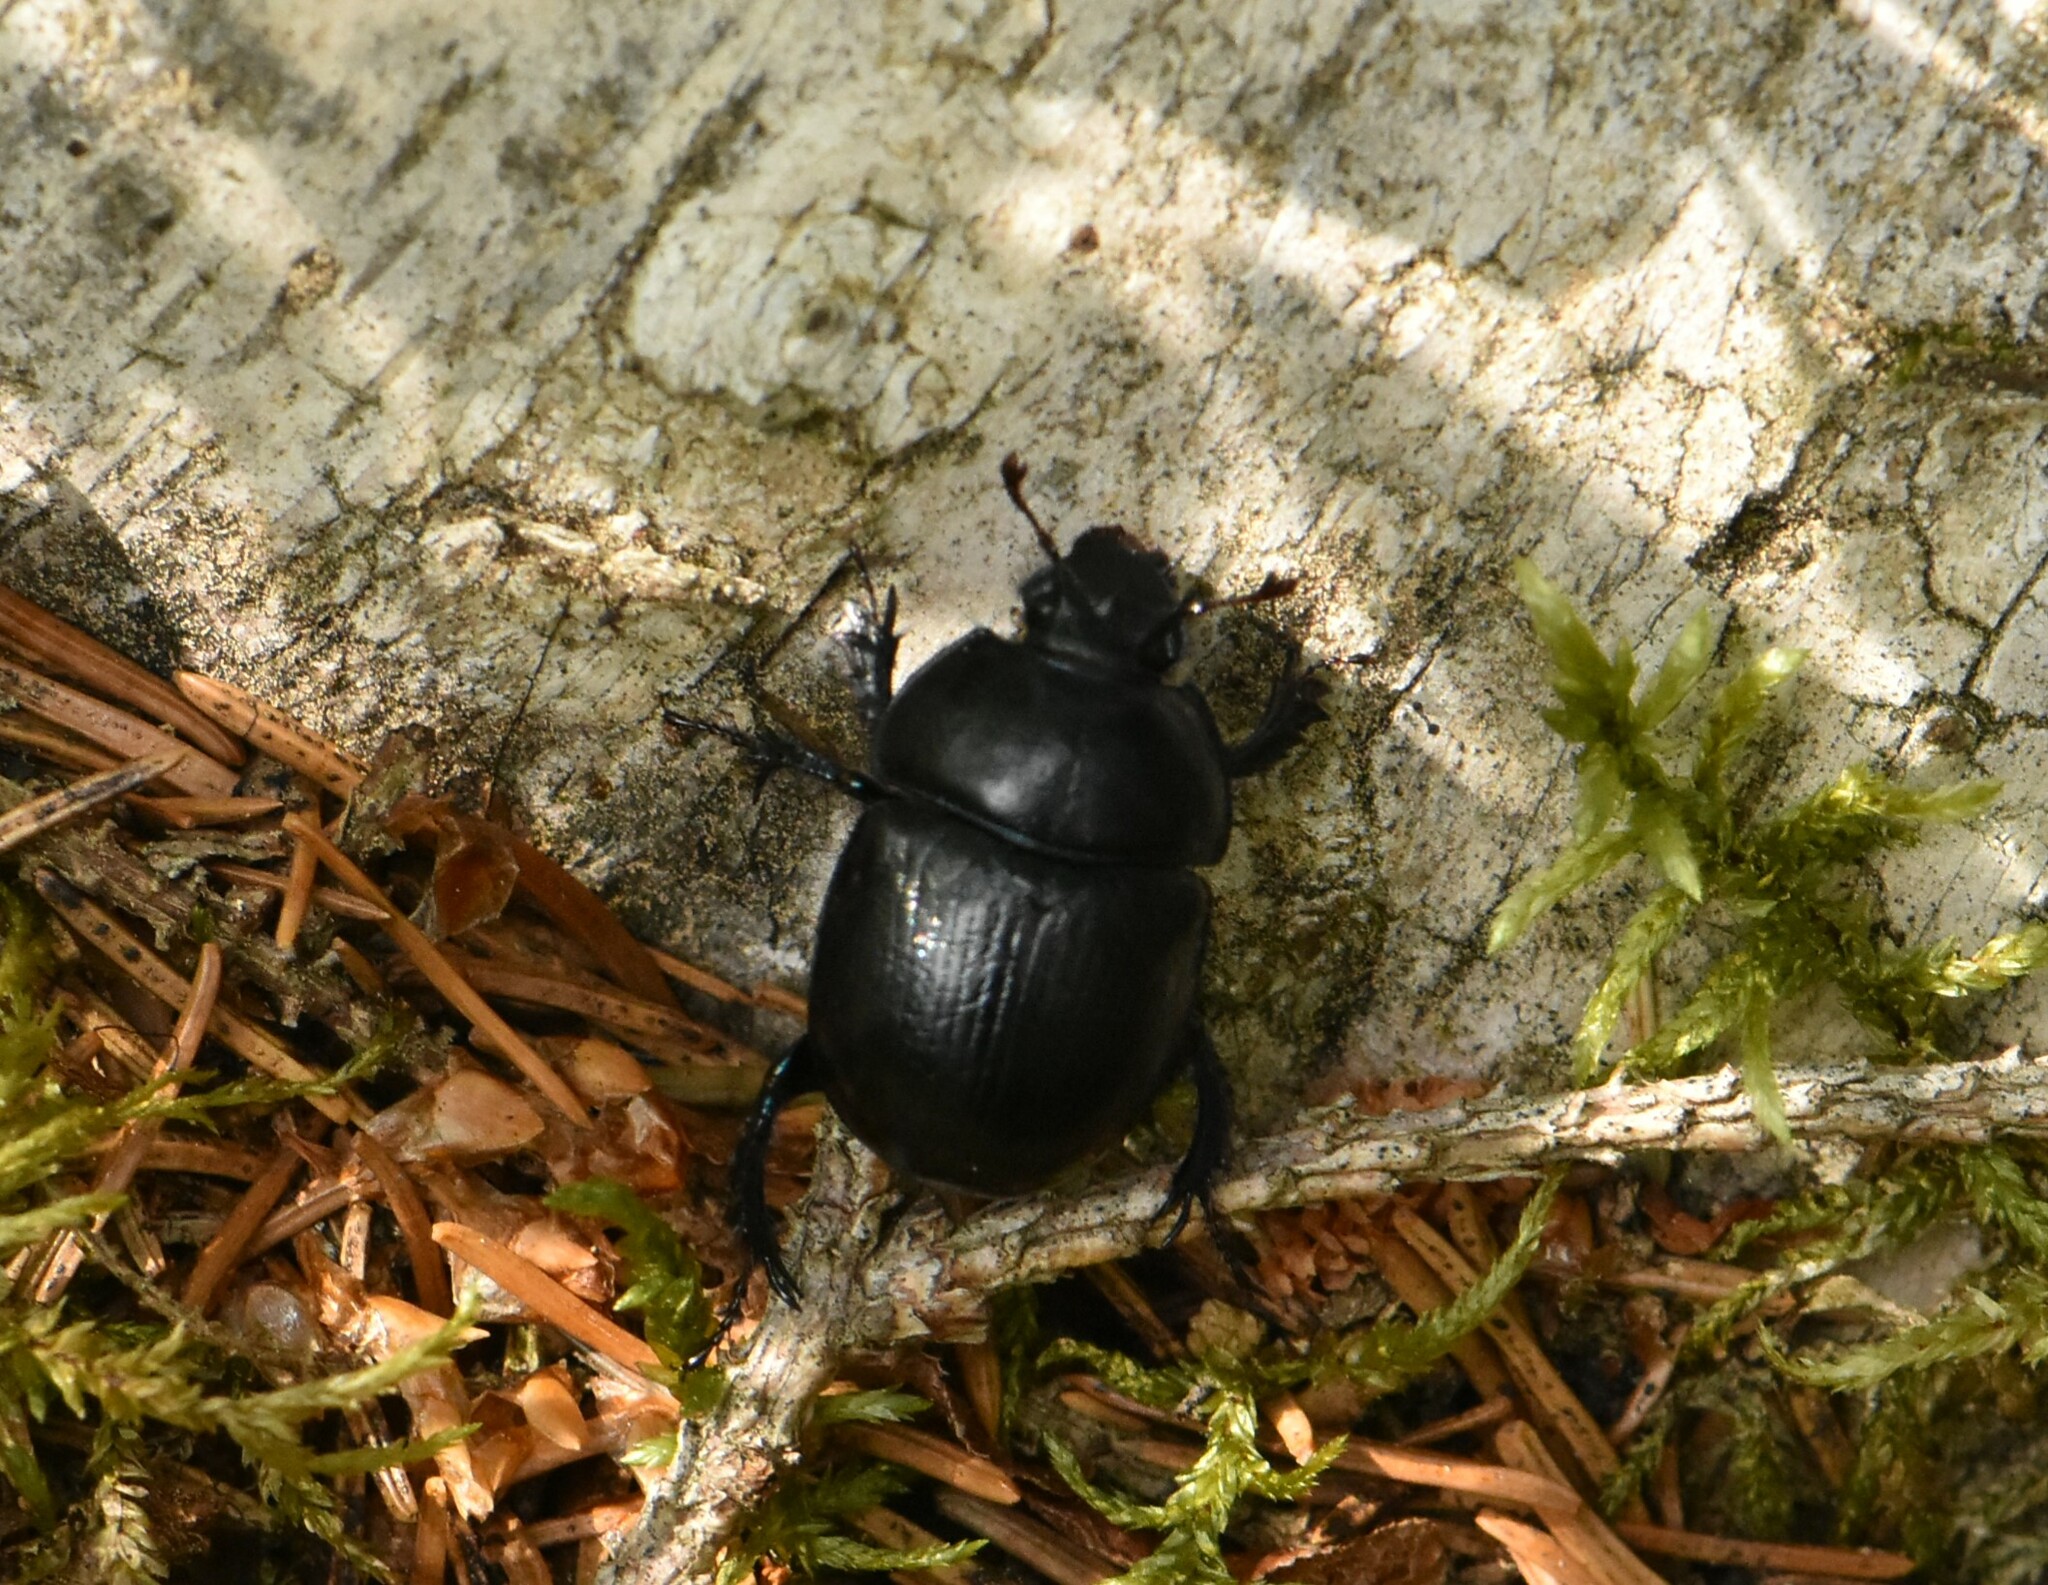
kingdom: Animalia
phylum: Arthropoda
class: Insecta
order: Coleoptera
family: Geotrupidae
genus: Anoplotrupes
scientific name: Anoplotrupes stercorosus
